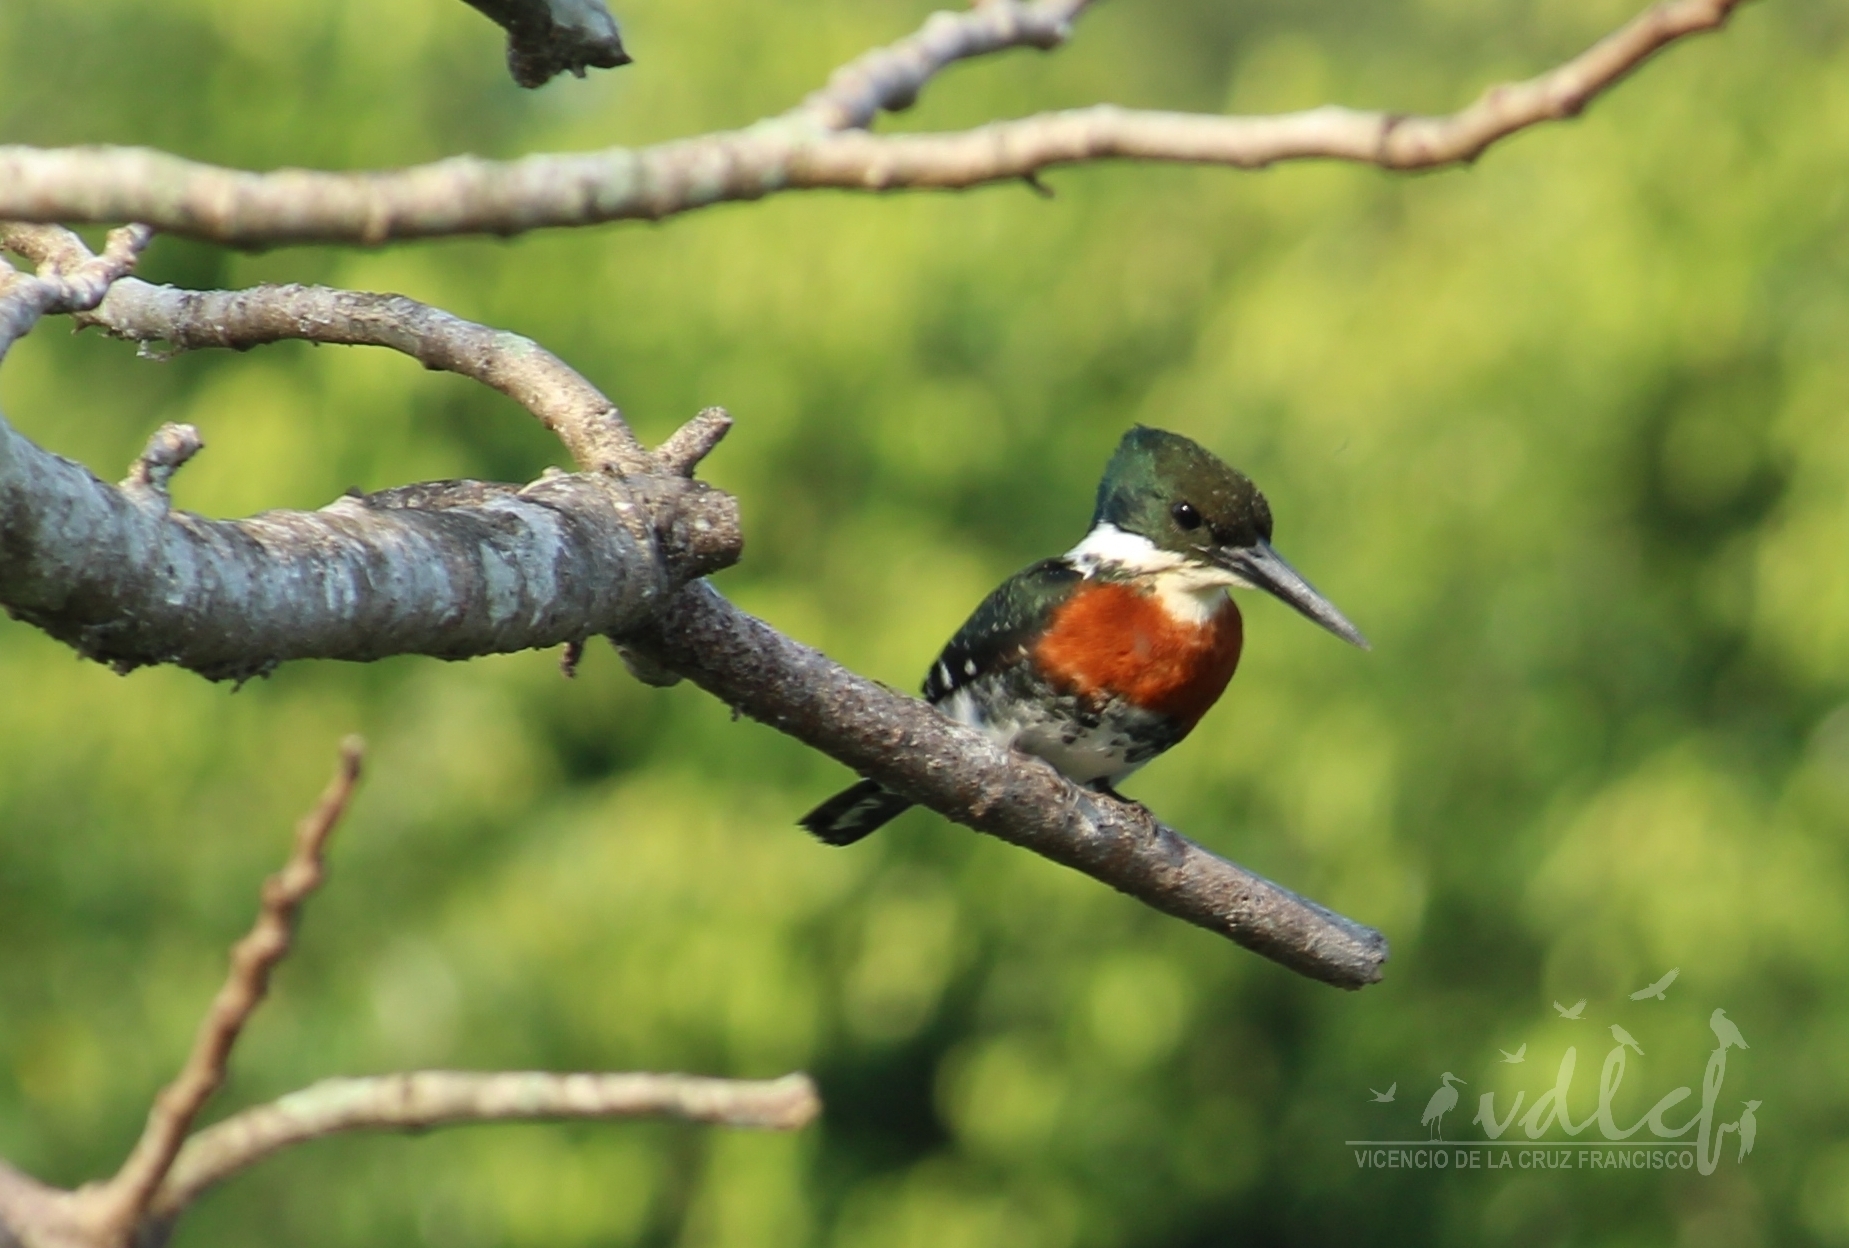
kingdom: Animalia
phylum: Chordata
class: Aves
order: Coraciiformes
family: Alcedinidae
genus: Chloroceryle
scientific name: Chloroceryle americana
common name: Green kingfisher
